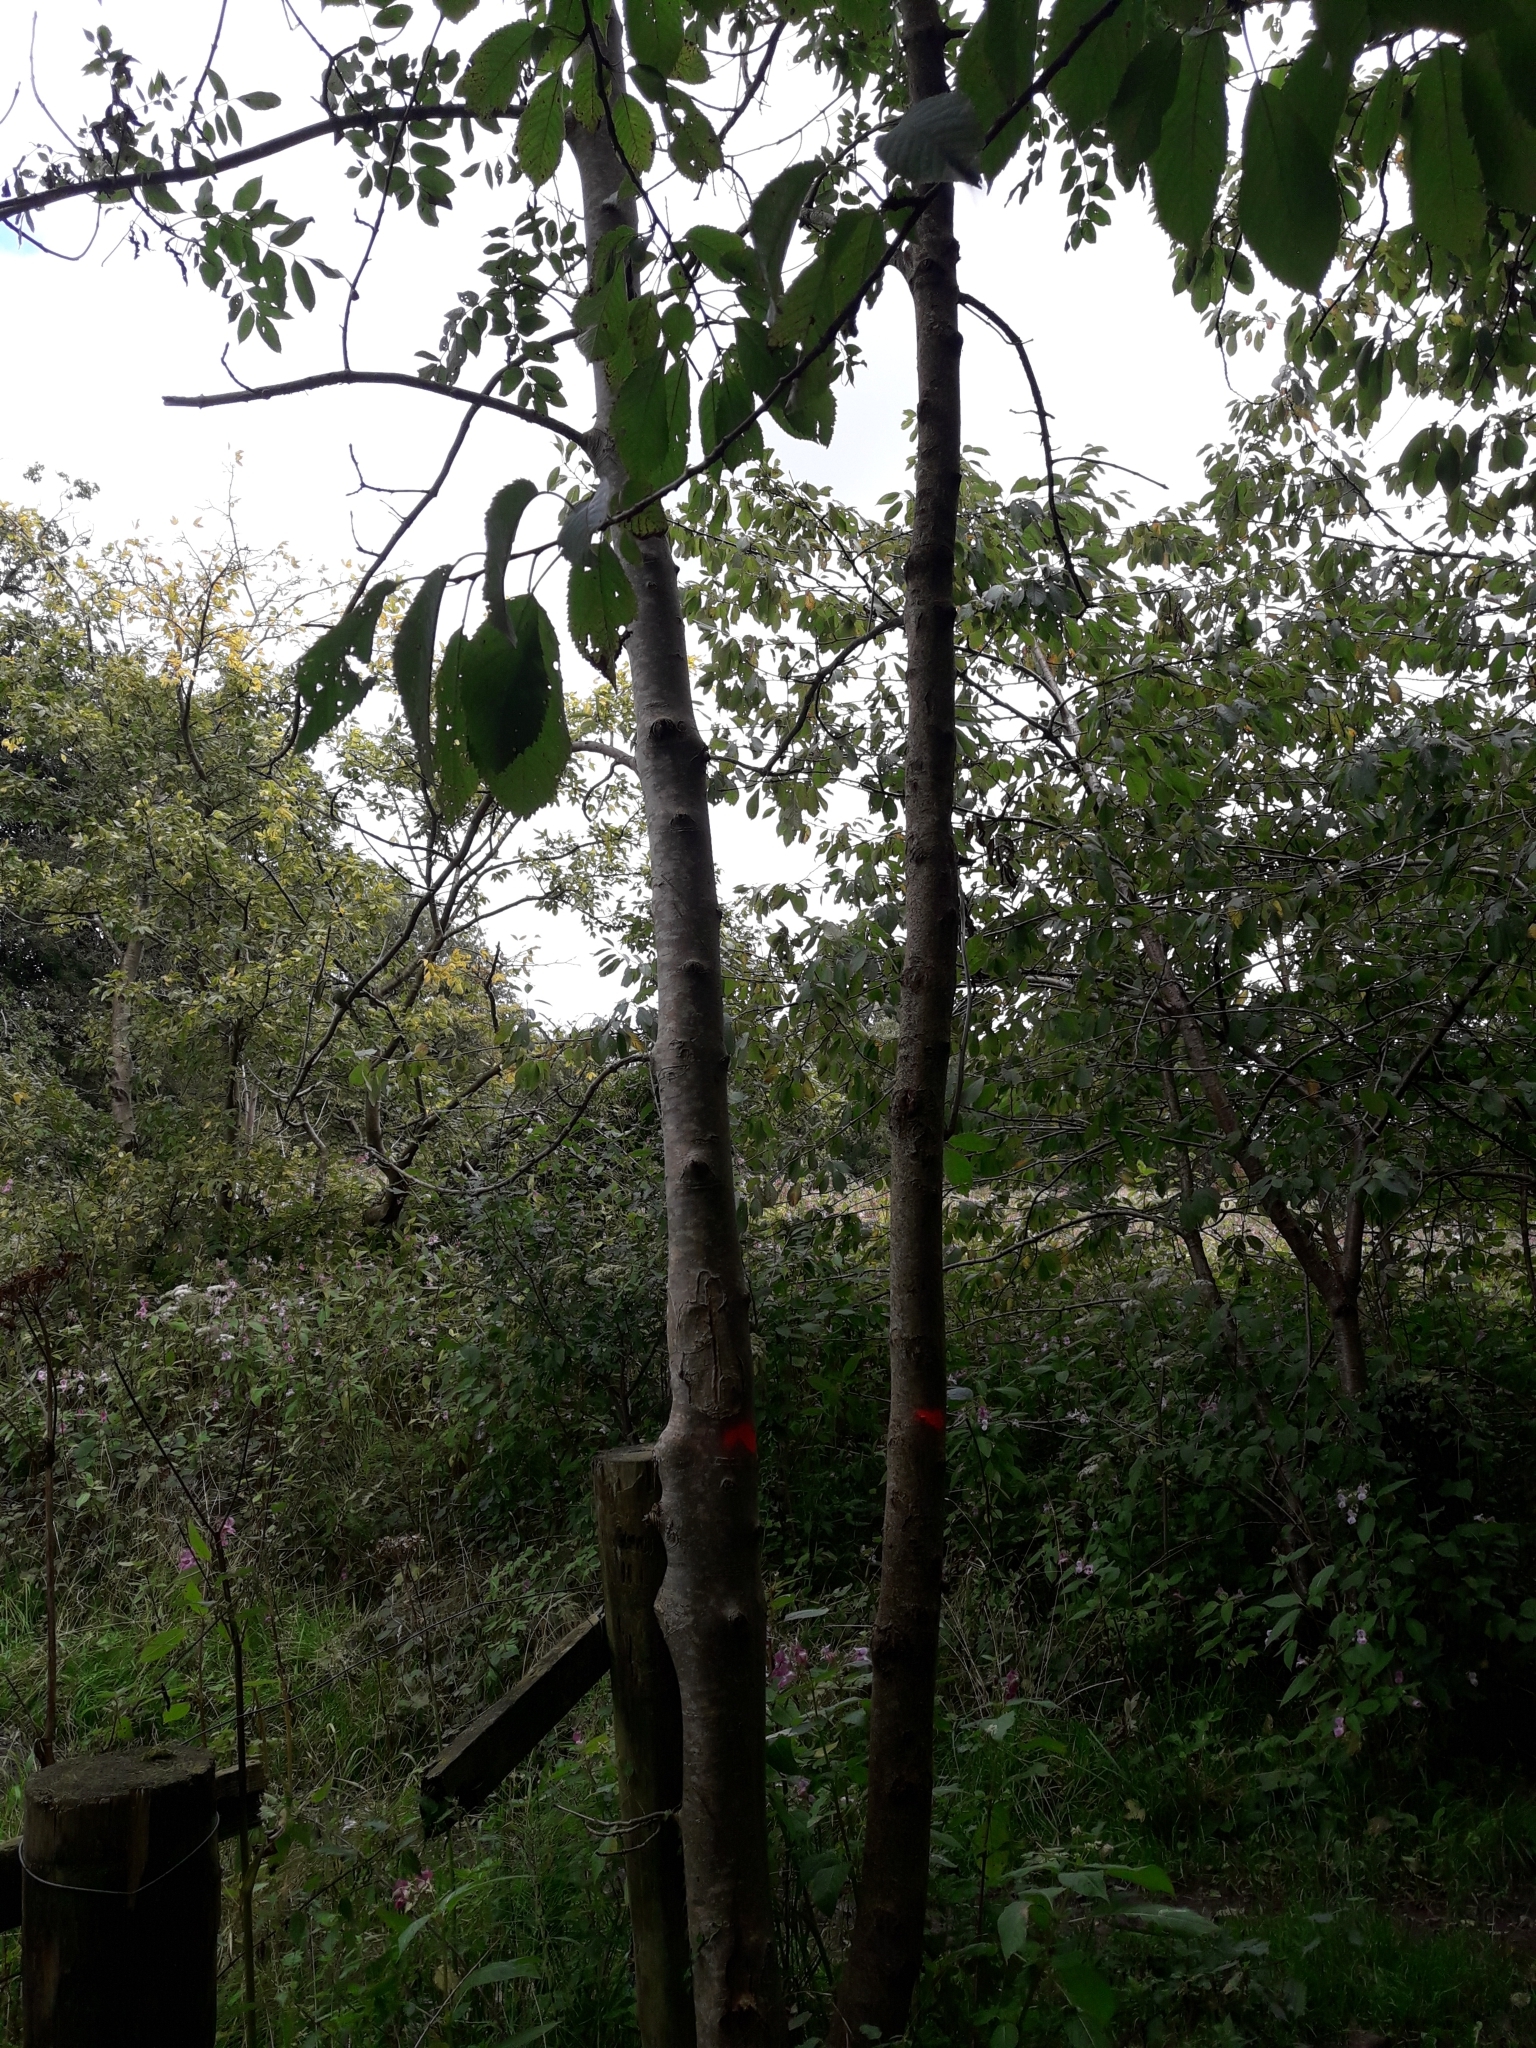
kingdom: Plantae
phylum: Tracheophyta
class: Magnoliopsida
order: Lamiales
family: Oleaceae
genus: Fraxinus
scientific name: Fraxinus excelsior
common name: European ash
